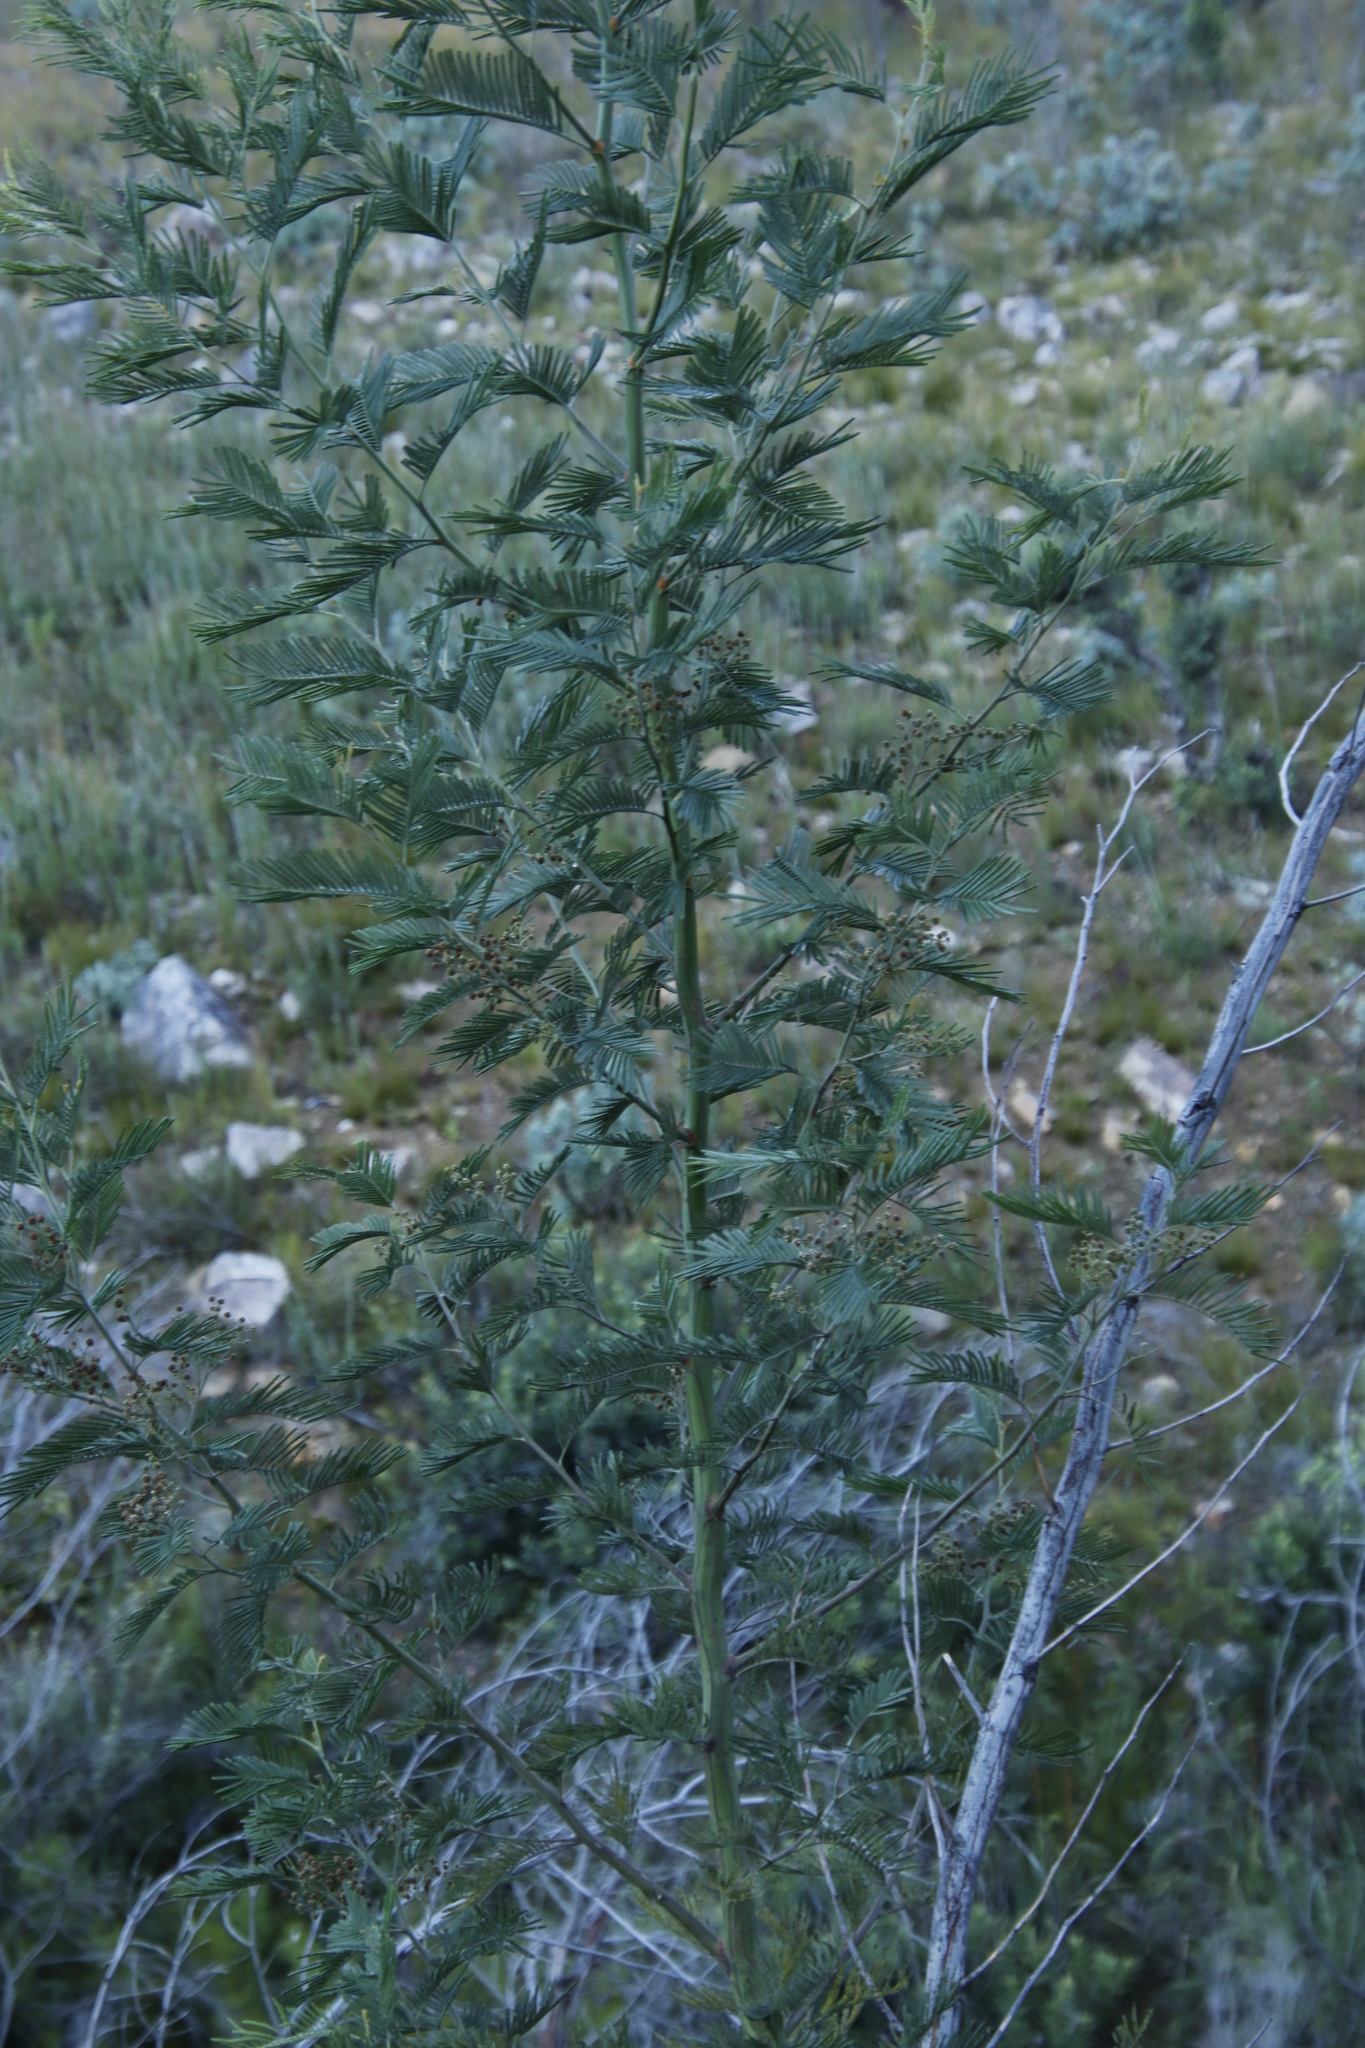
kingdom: Plantae
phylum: Tracheophyta
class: Magnoliopsida
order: Fabales
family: Fabaceae
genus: Acacia
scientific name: Acacia mearnsii
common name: Black wattle
